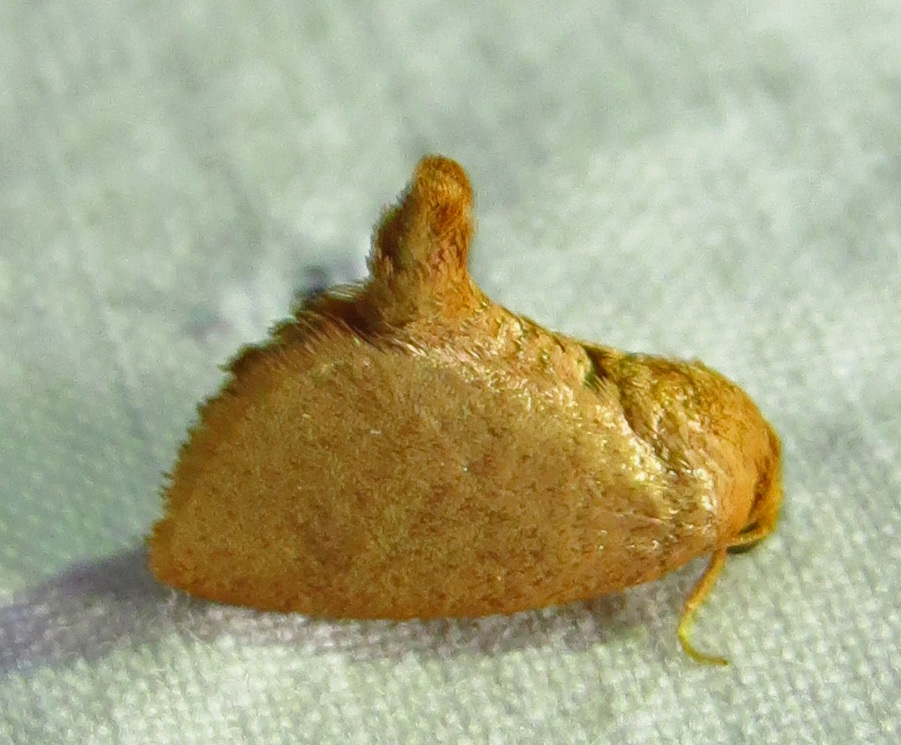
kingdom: Animalia
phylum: Arthropoda
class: Insecta
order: Lepidoptera
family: Limacodidae
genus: Tortricidia
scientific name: Tortricidia pallida
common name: Red-crossed button slug moth
